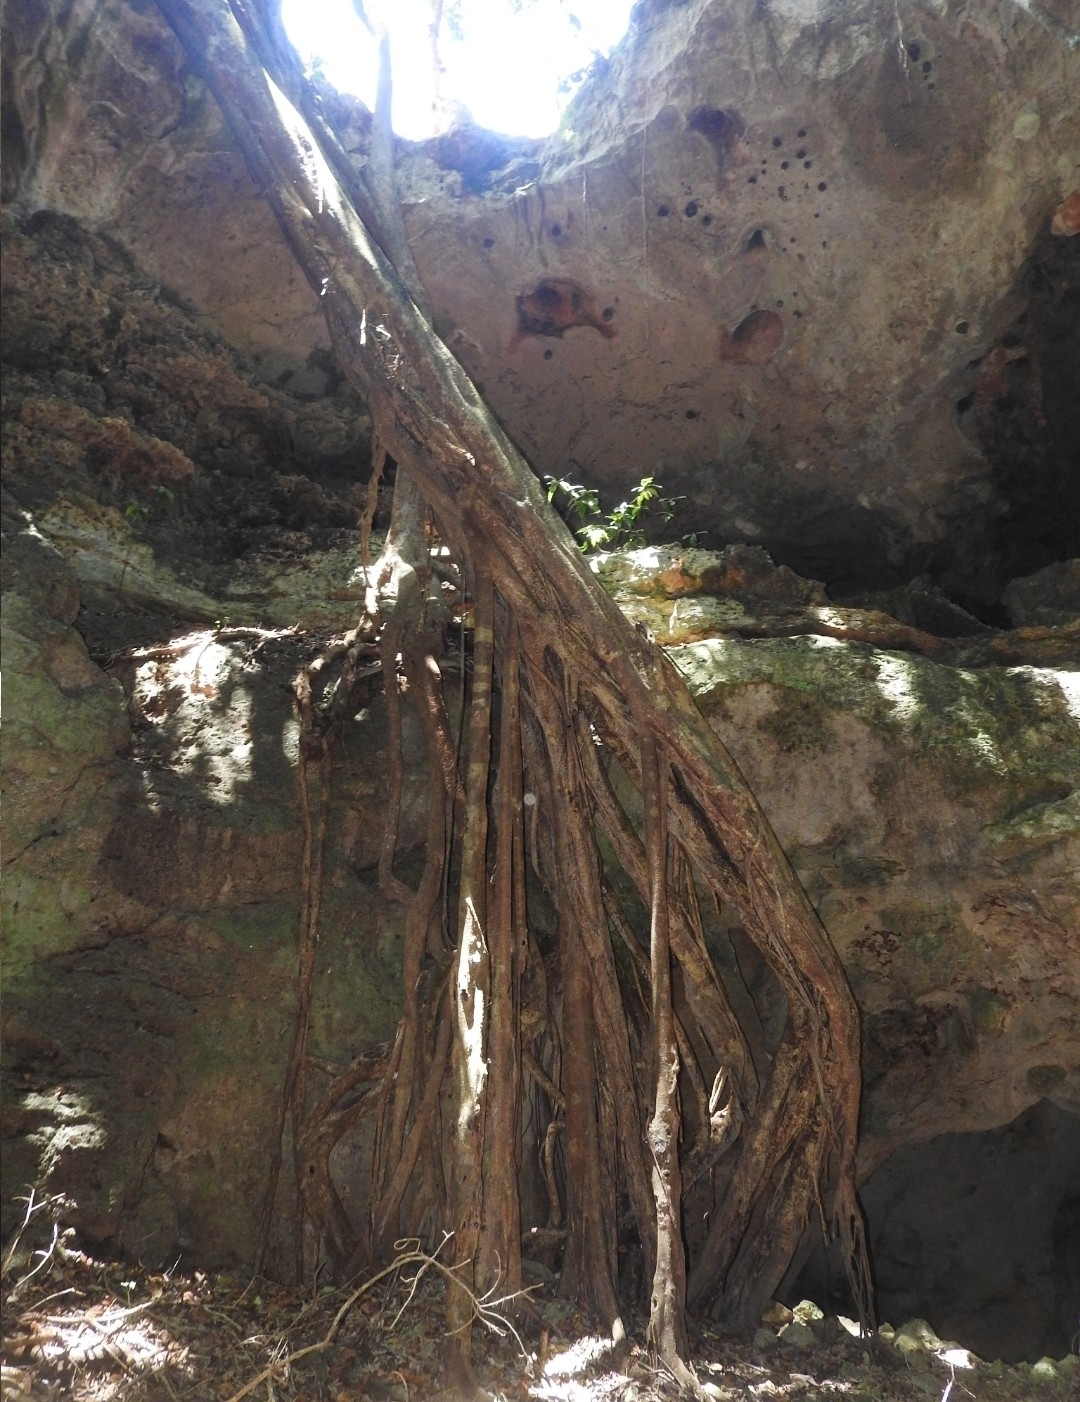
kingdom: Plantae
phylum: Tracheophyta
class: Magnoliopsida
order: Rosales
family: Moraceae
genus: Ficus
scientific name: Ficus cotinifolia
